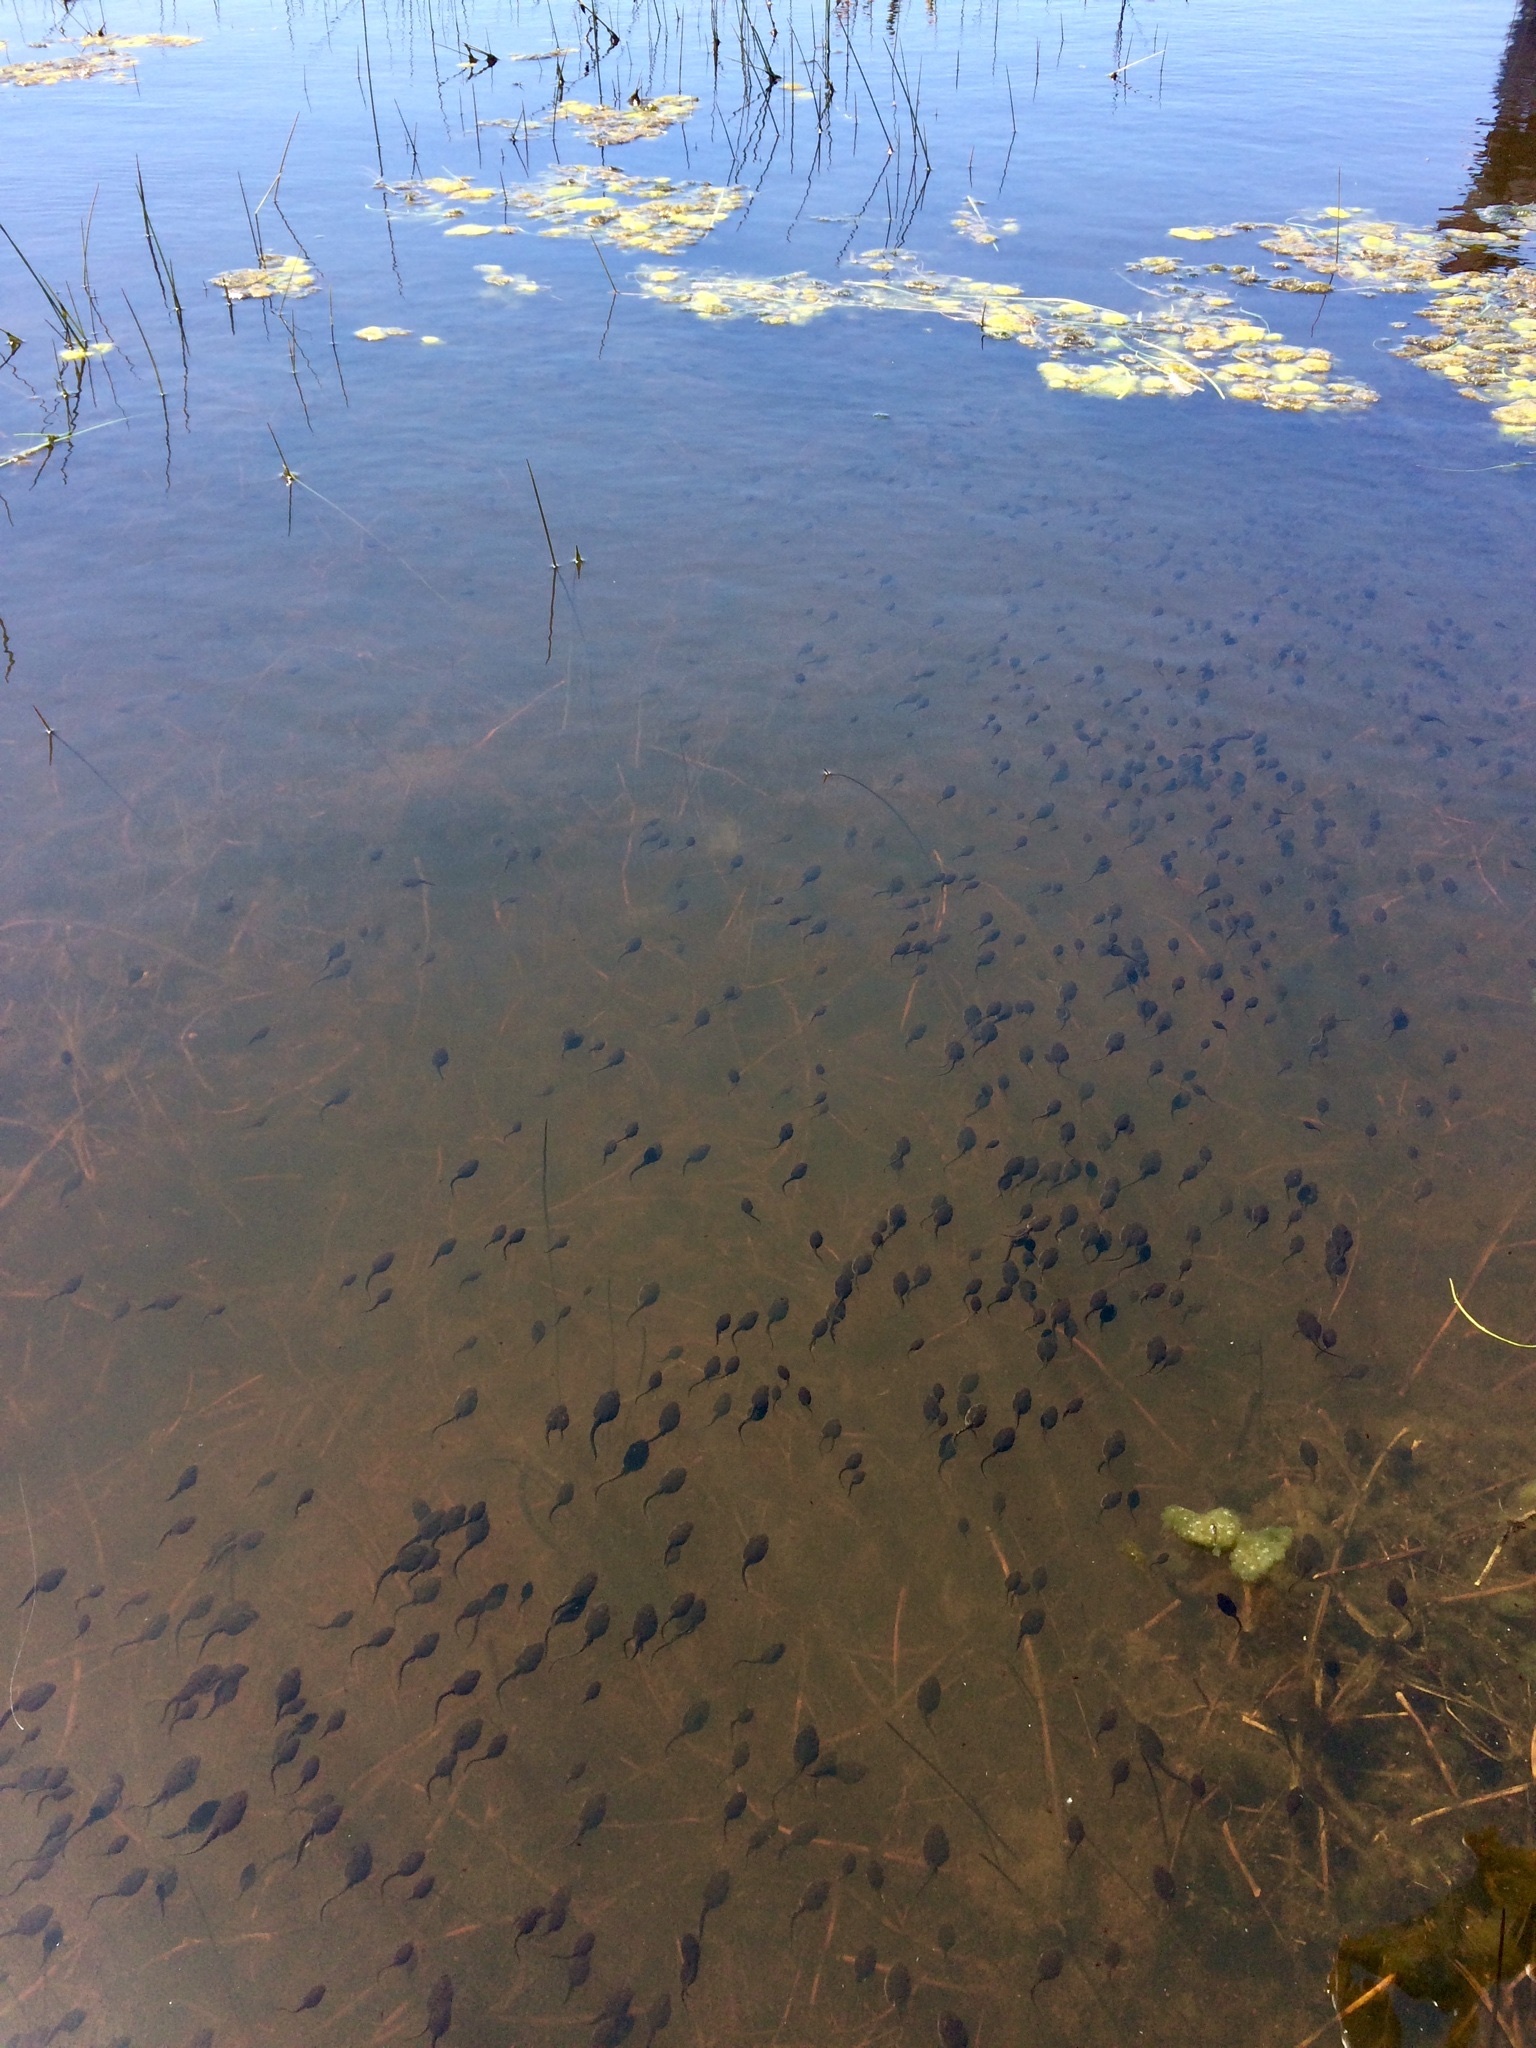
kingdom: Animalia
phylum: Chordata
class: Amphibia
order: Anura
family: Bufonidae
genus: Anaxyrus
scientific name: Anaxyrus boreas
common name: Western toad
